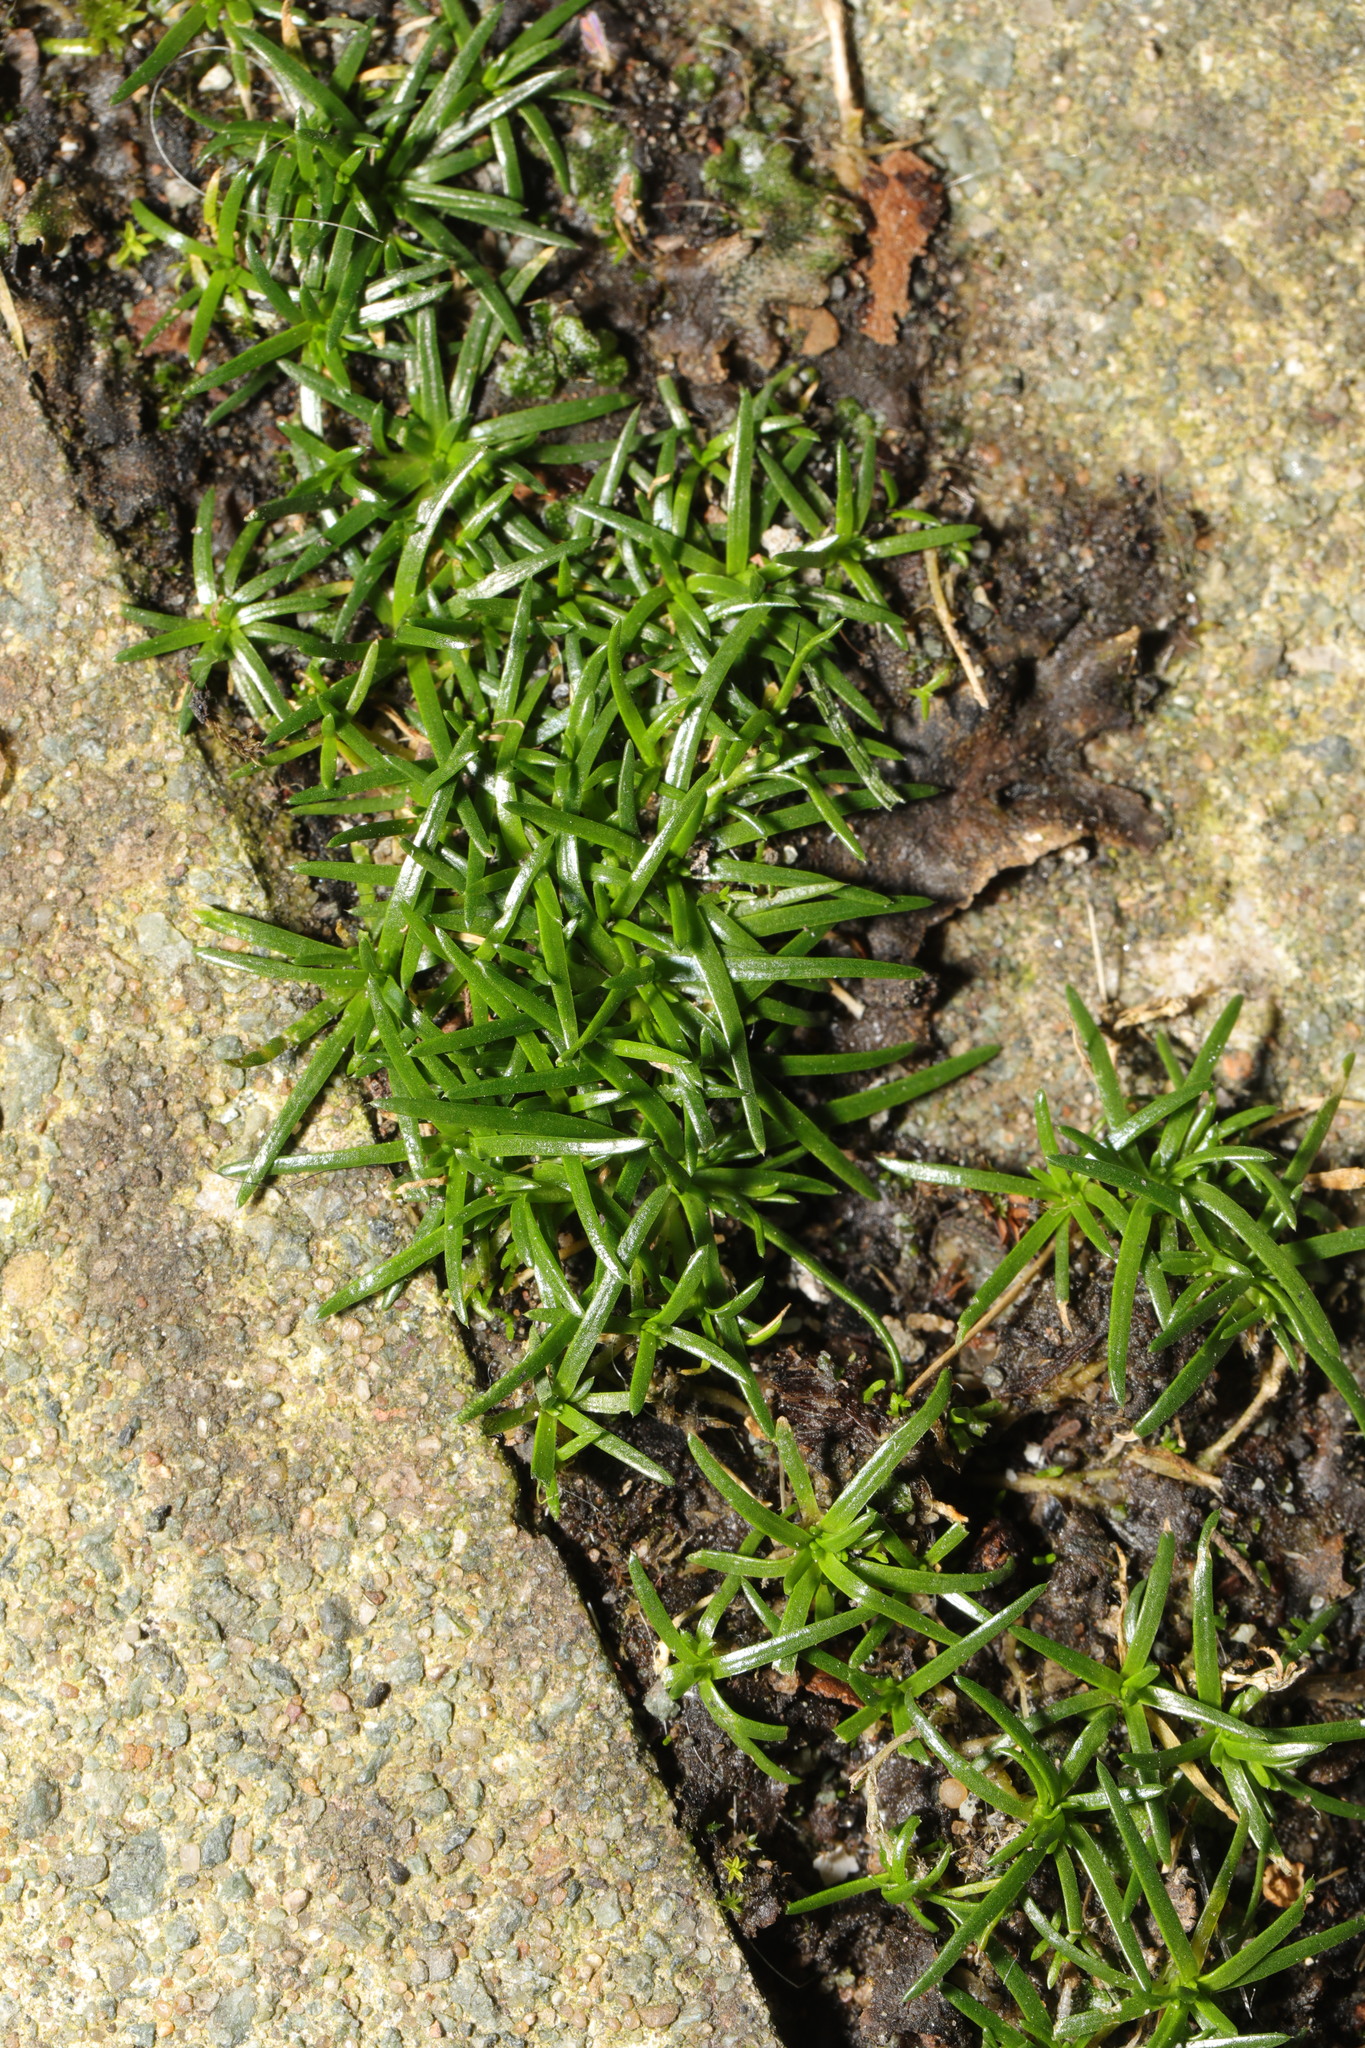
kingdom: Plantae
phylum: Tracheophyta
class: Magnoliopsida
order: Caryophyllales
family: Caryophyllaceae
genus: Sagina
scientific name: Sagina procumbens
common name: Procumbent pearlwort
